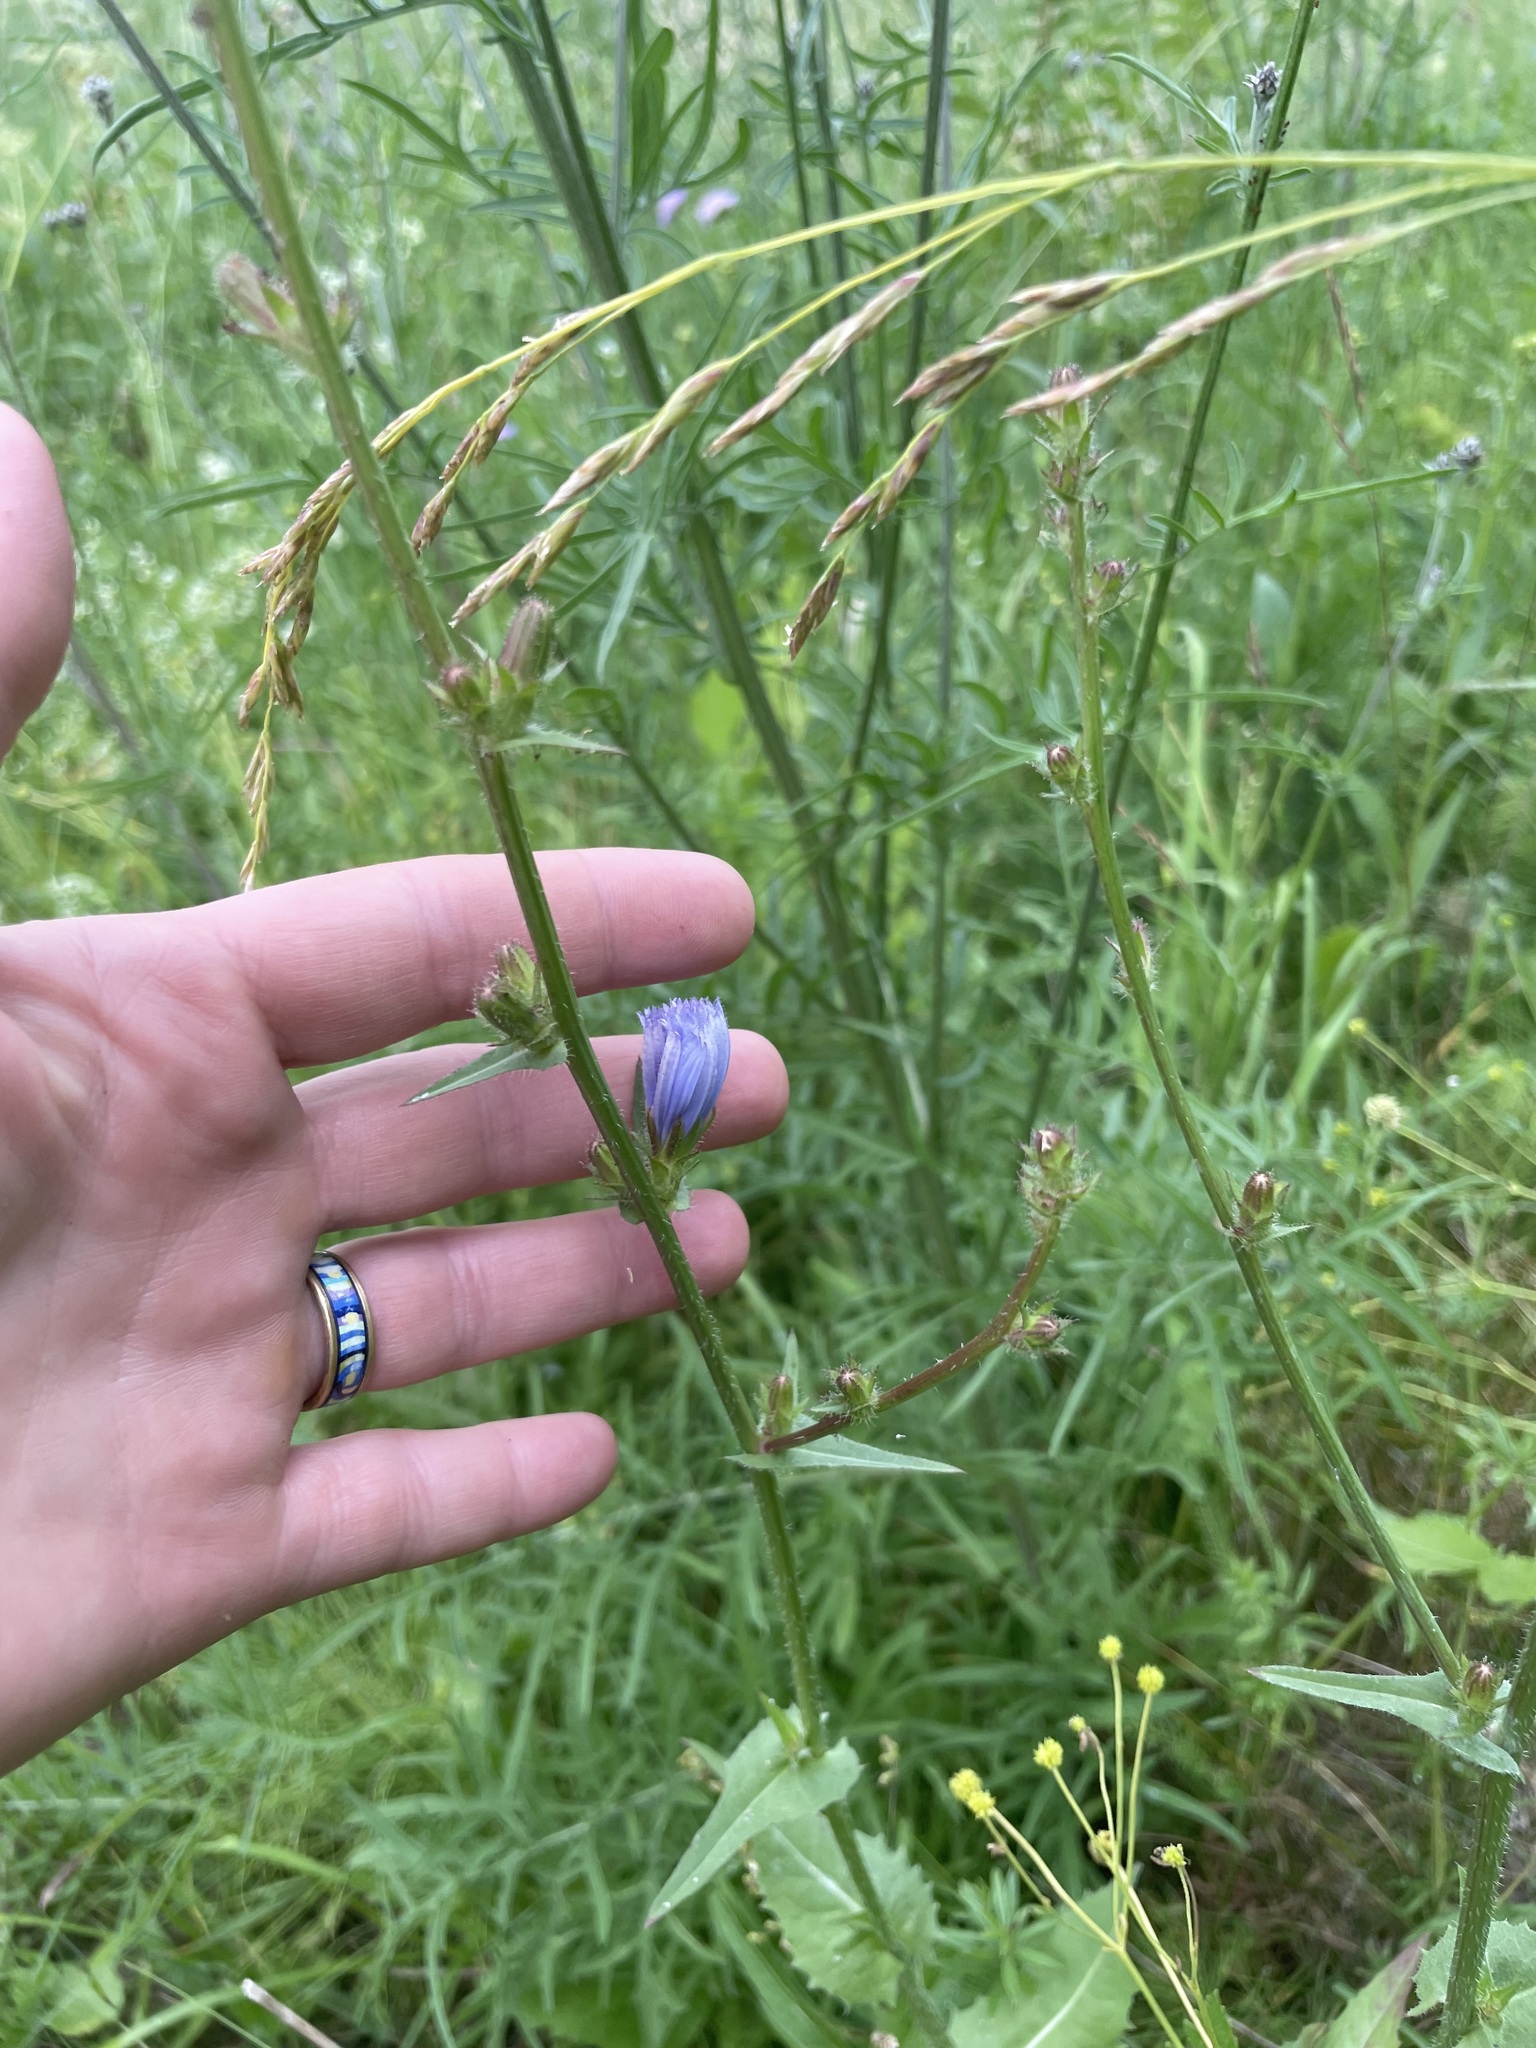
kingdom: Plantae
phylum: Tracheophyta
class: Magnoliopsida
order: Asterales
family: Asteraceae
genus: Cichorium
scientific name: Cichorium intybus
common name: Chicory
